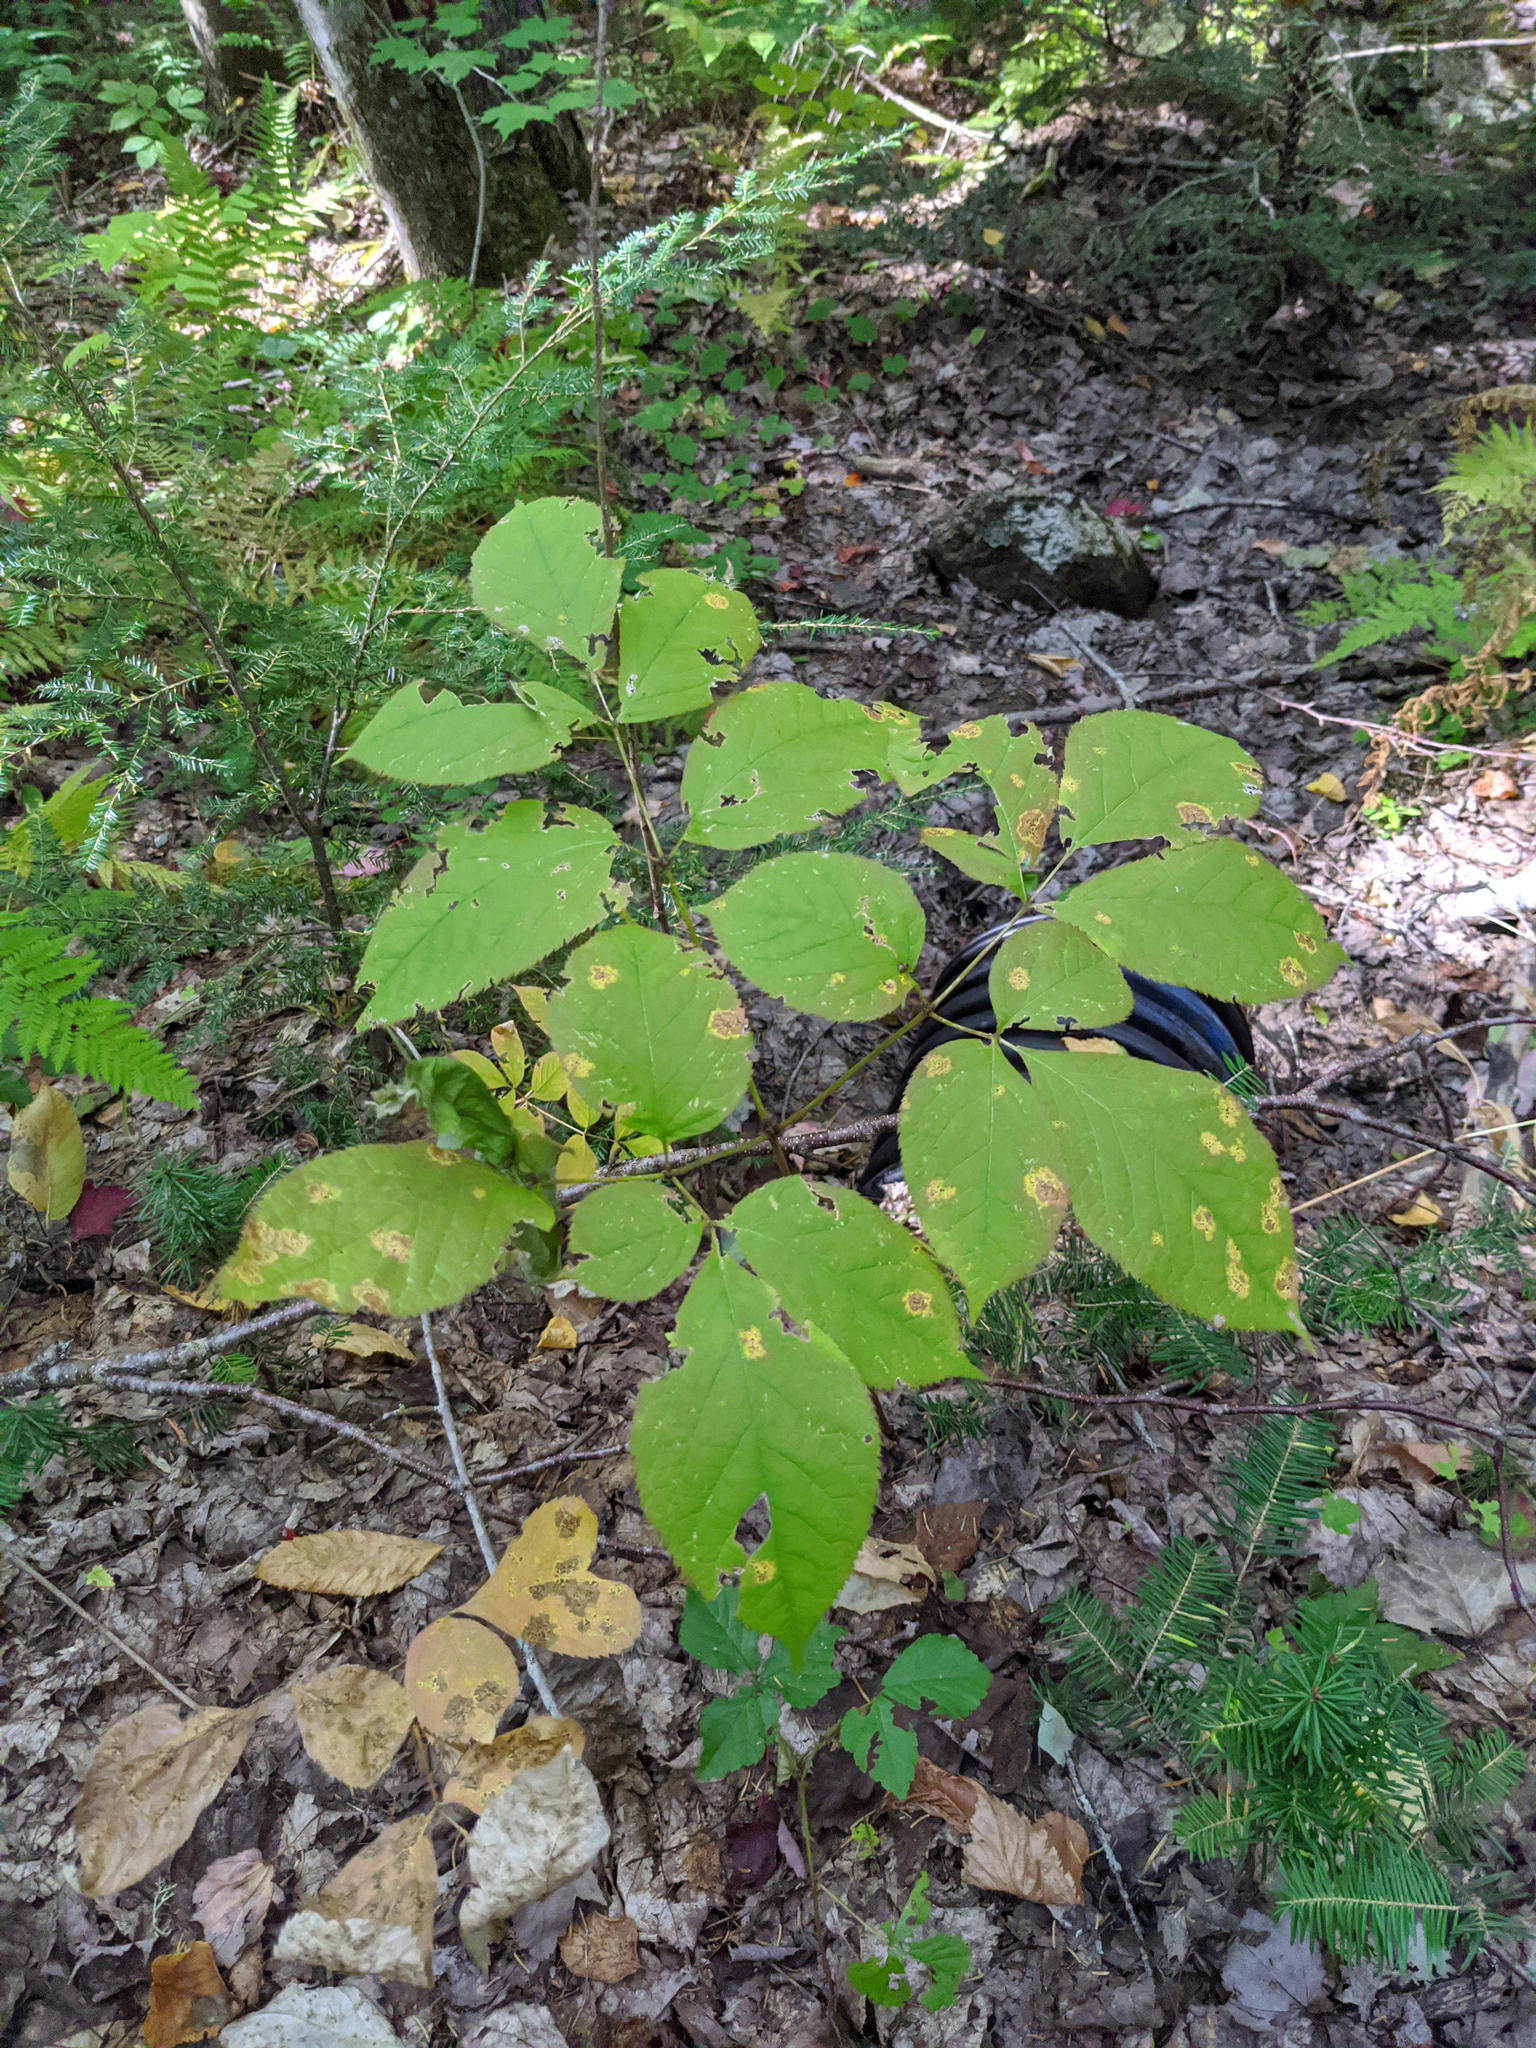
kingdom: Plantae
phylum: Tracheophyta
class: Magnoliopsida
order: Apiales
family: Araliaceae
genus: Aralia
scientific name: Aralia nudicaulis
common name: Wild sarsaparilla
